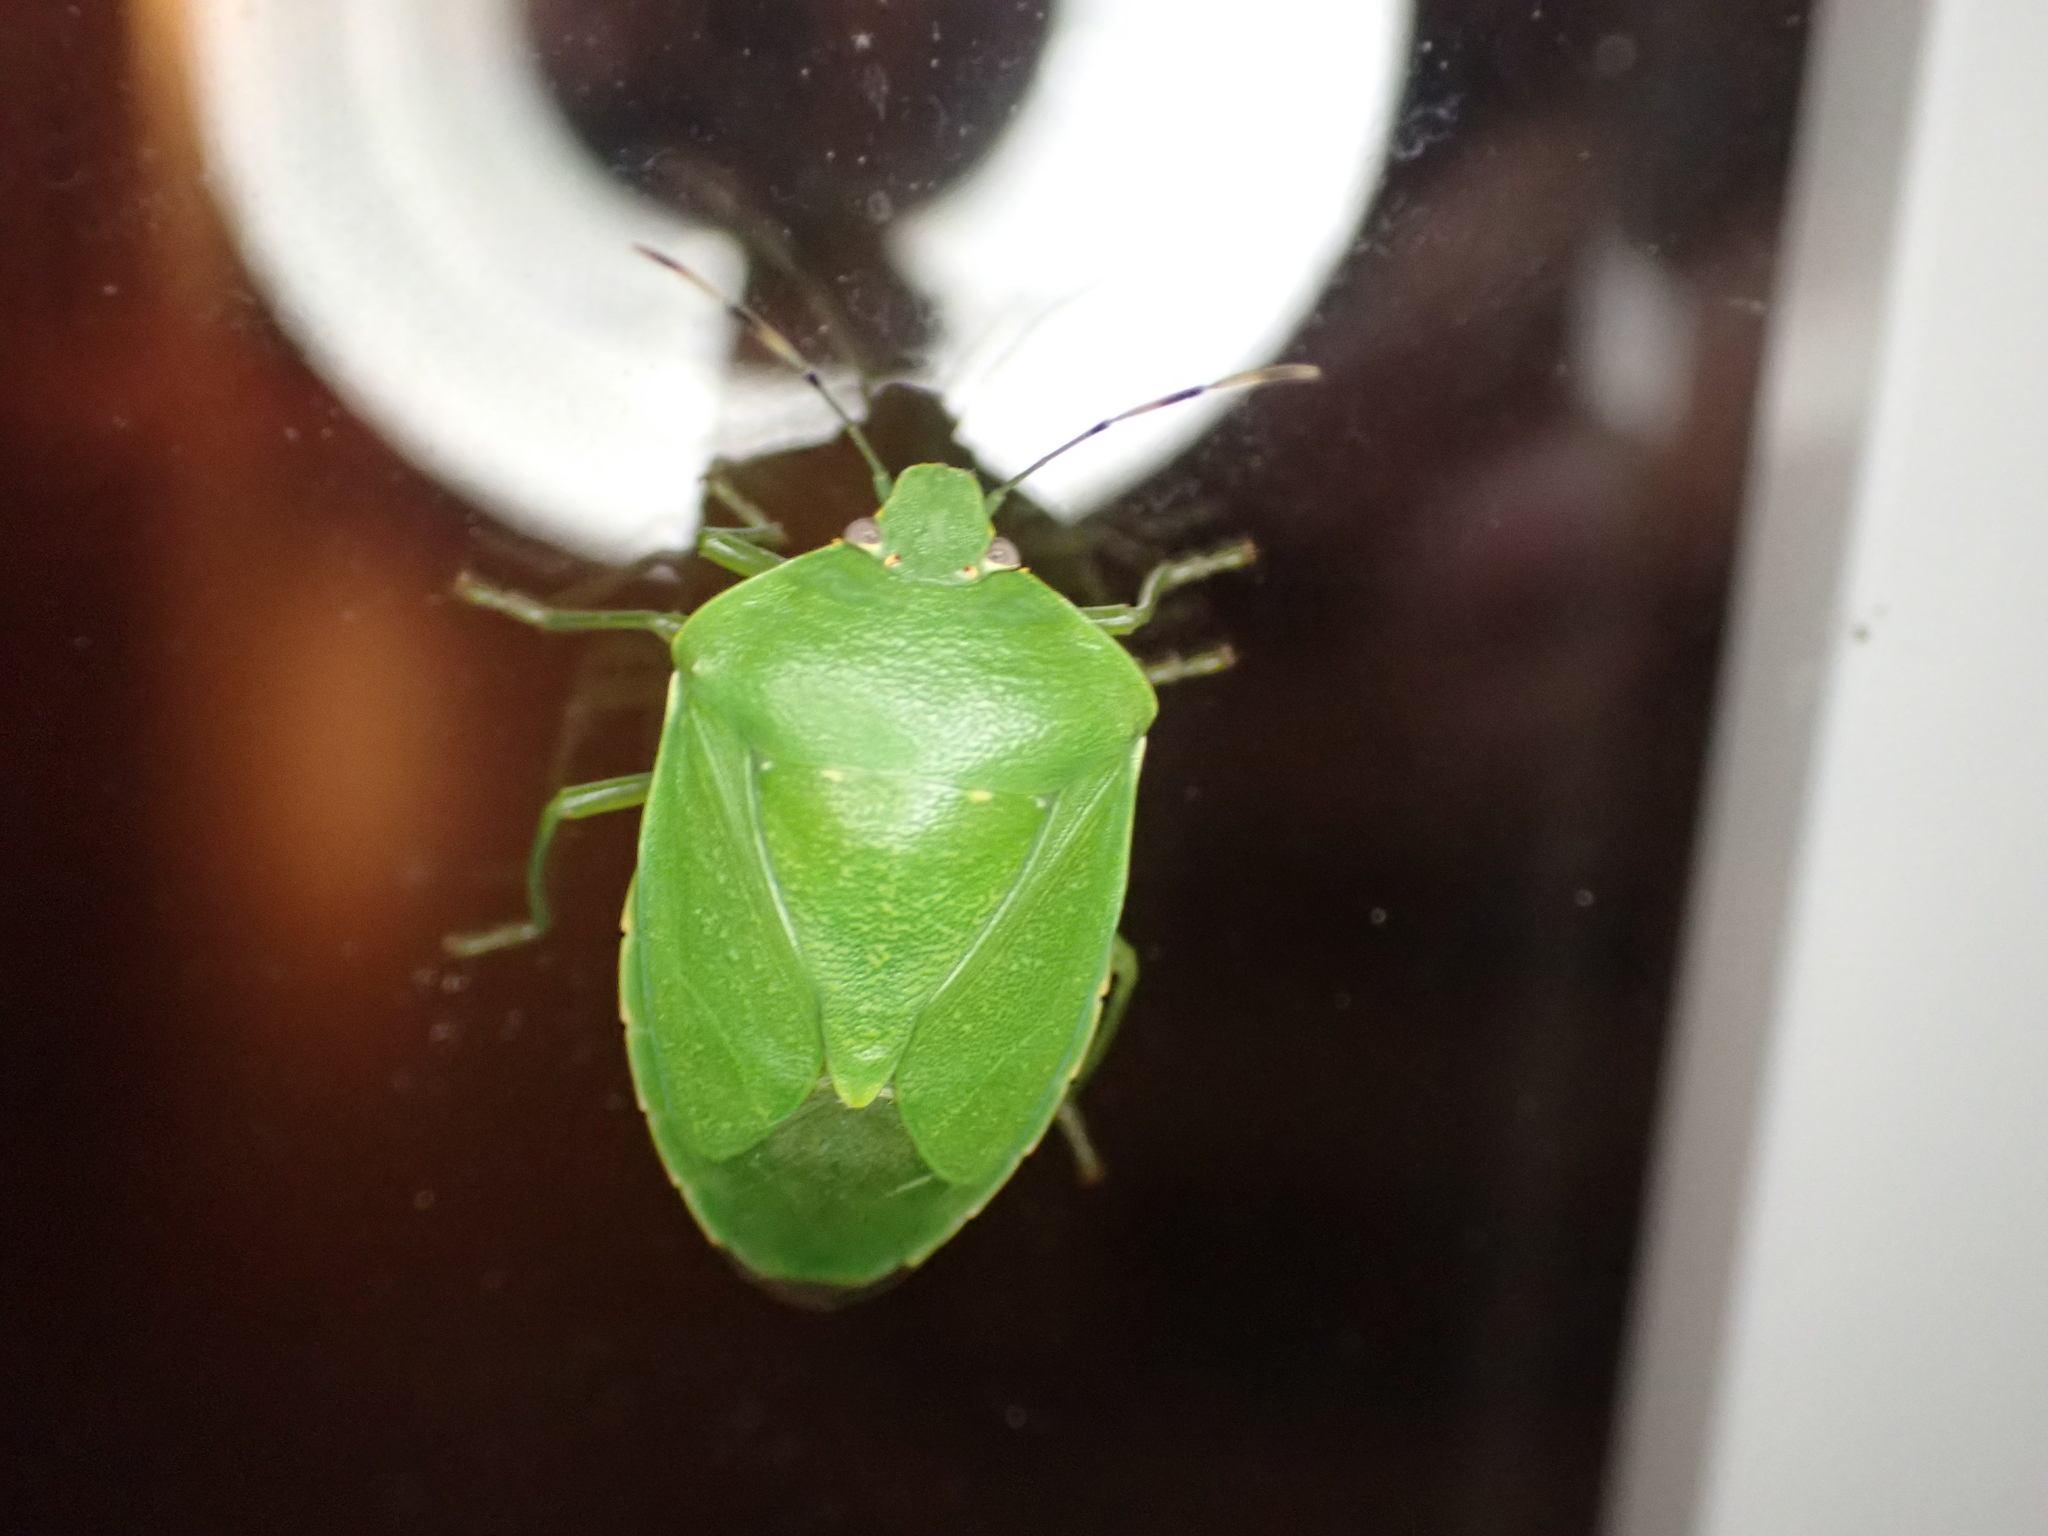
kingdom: Animalia
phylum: Arthropoda
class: Insecta
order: Hemiptera
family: Pentatomidae
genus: Chinavia
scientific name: Chinavia hilaris
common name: Green stink bug
